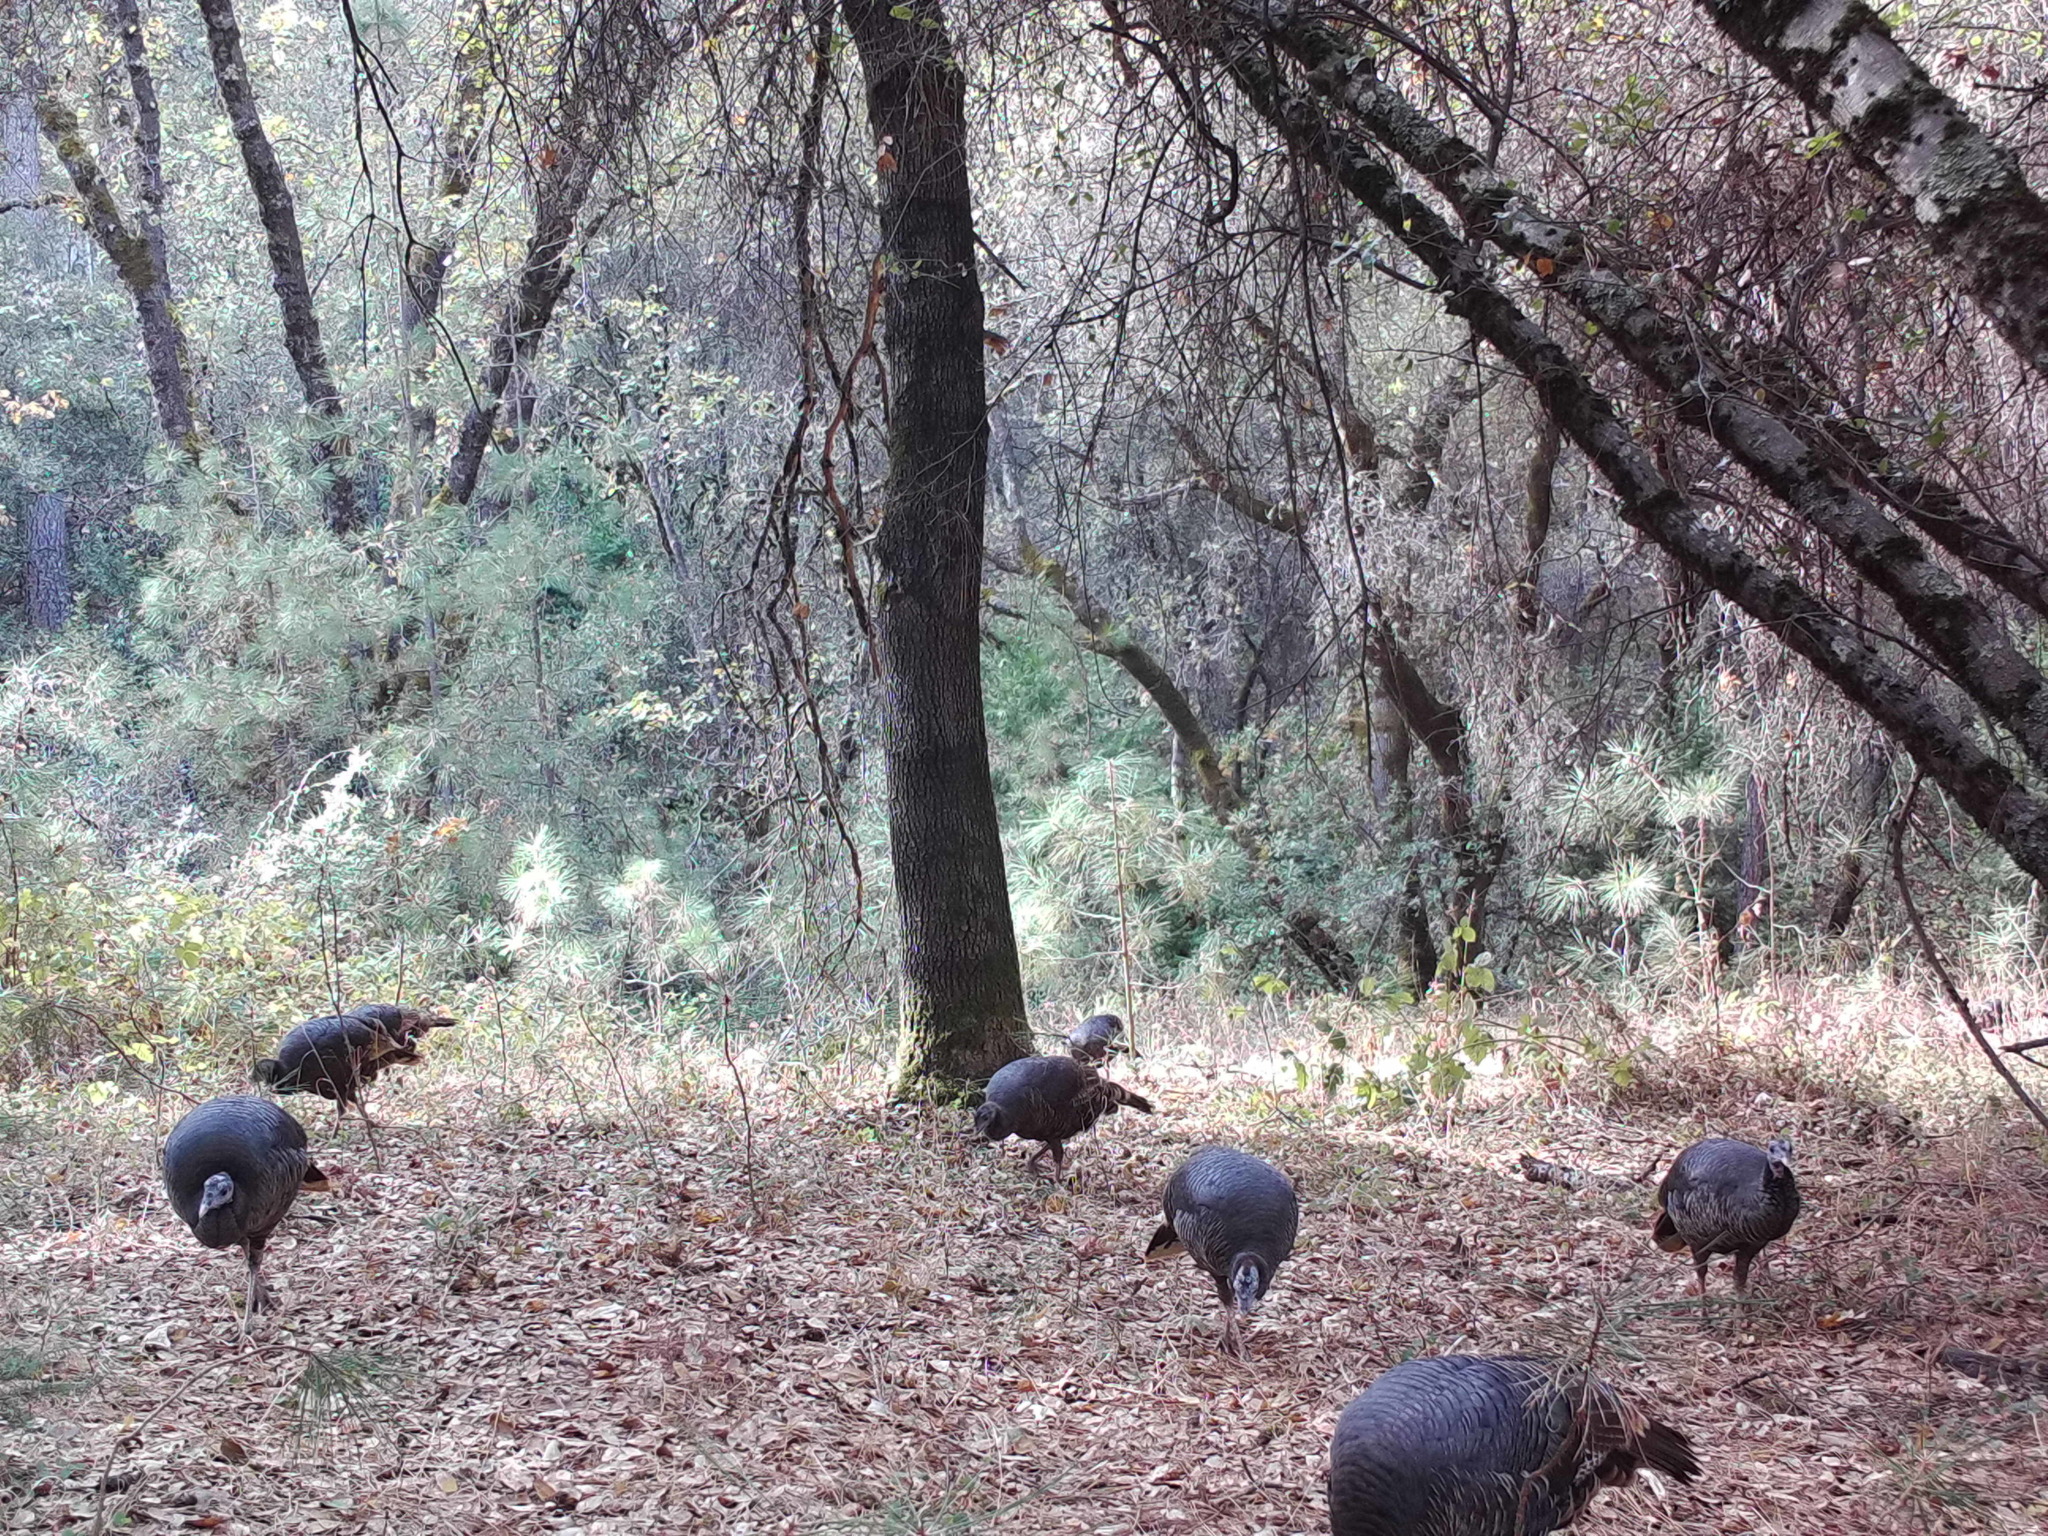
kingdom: Animalia
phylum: Chordata
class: Aves
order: Galliformes
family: Phasianidae
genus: Meleagris
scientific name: Meleagris gallopavo
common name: Wild turkey
